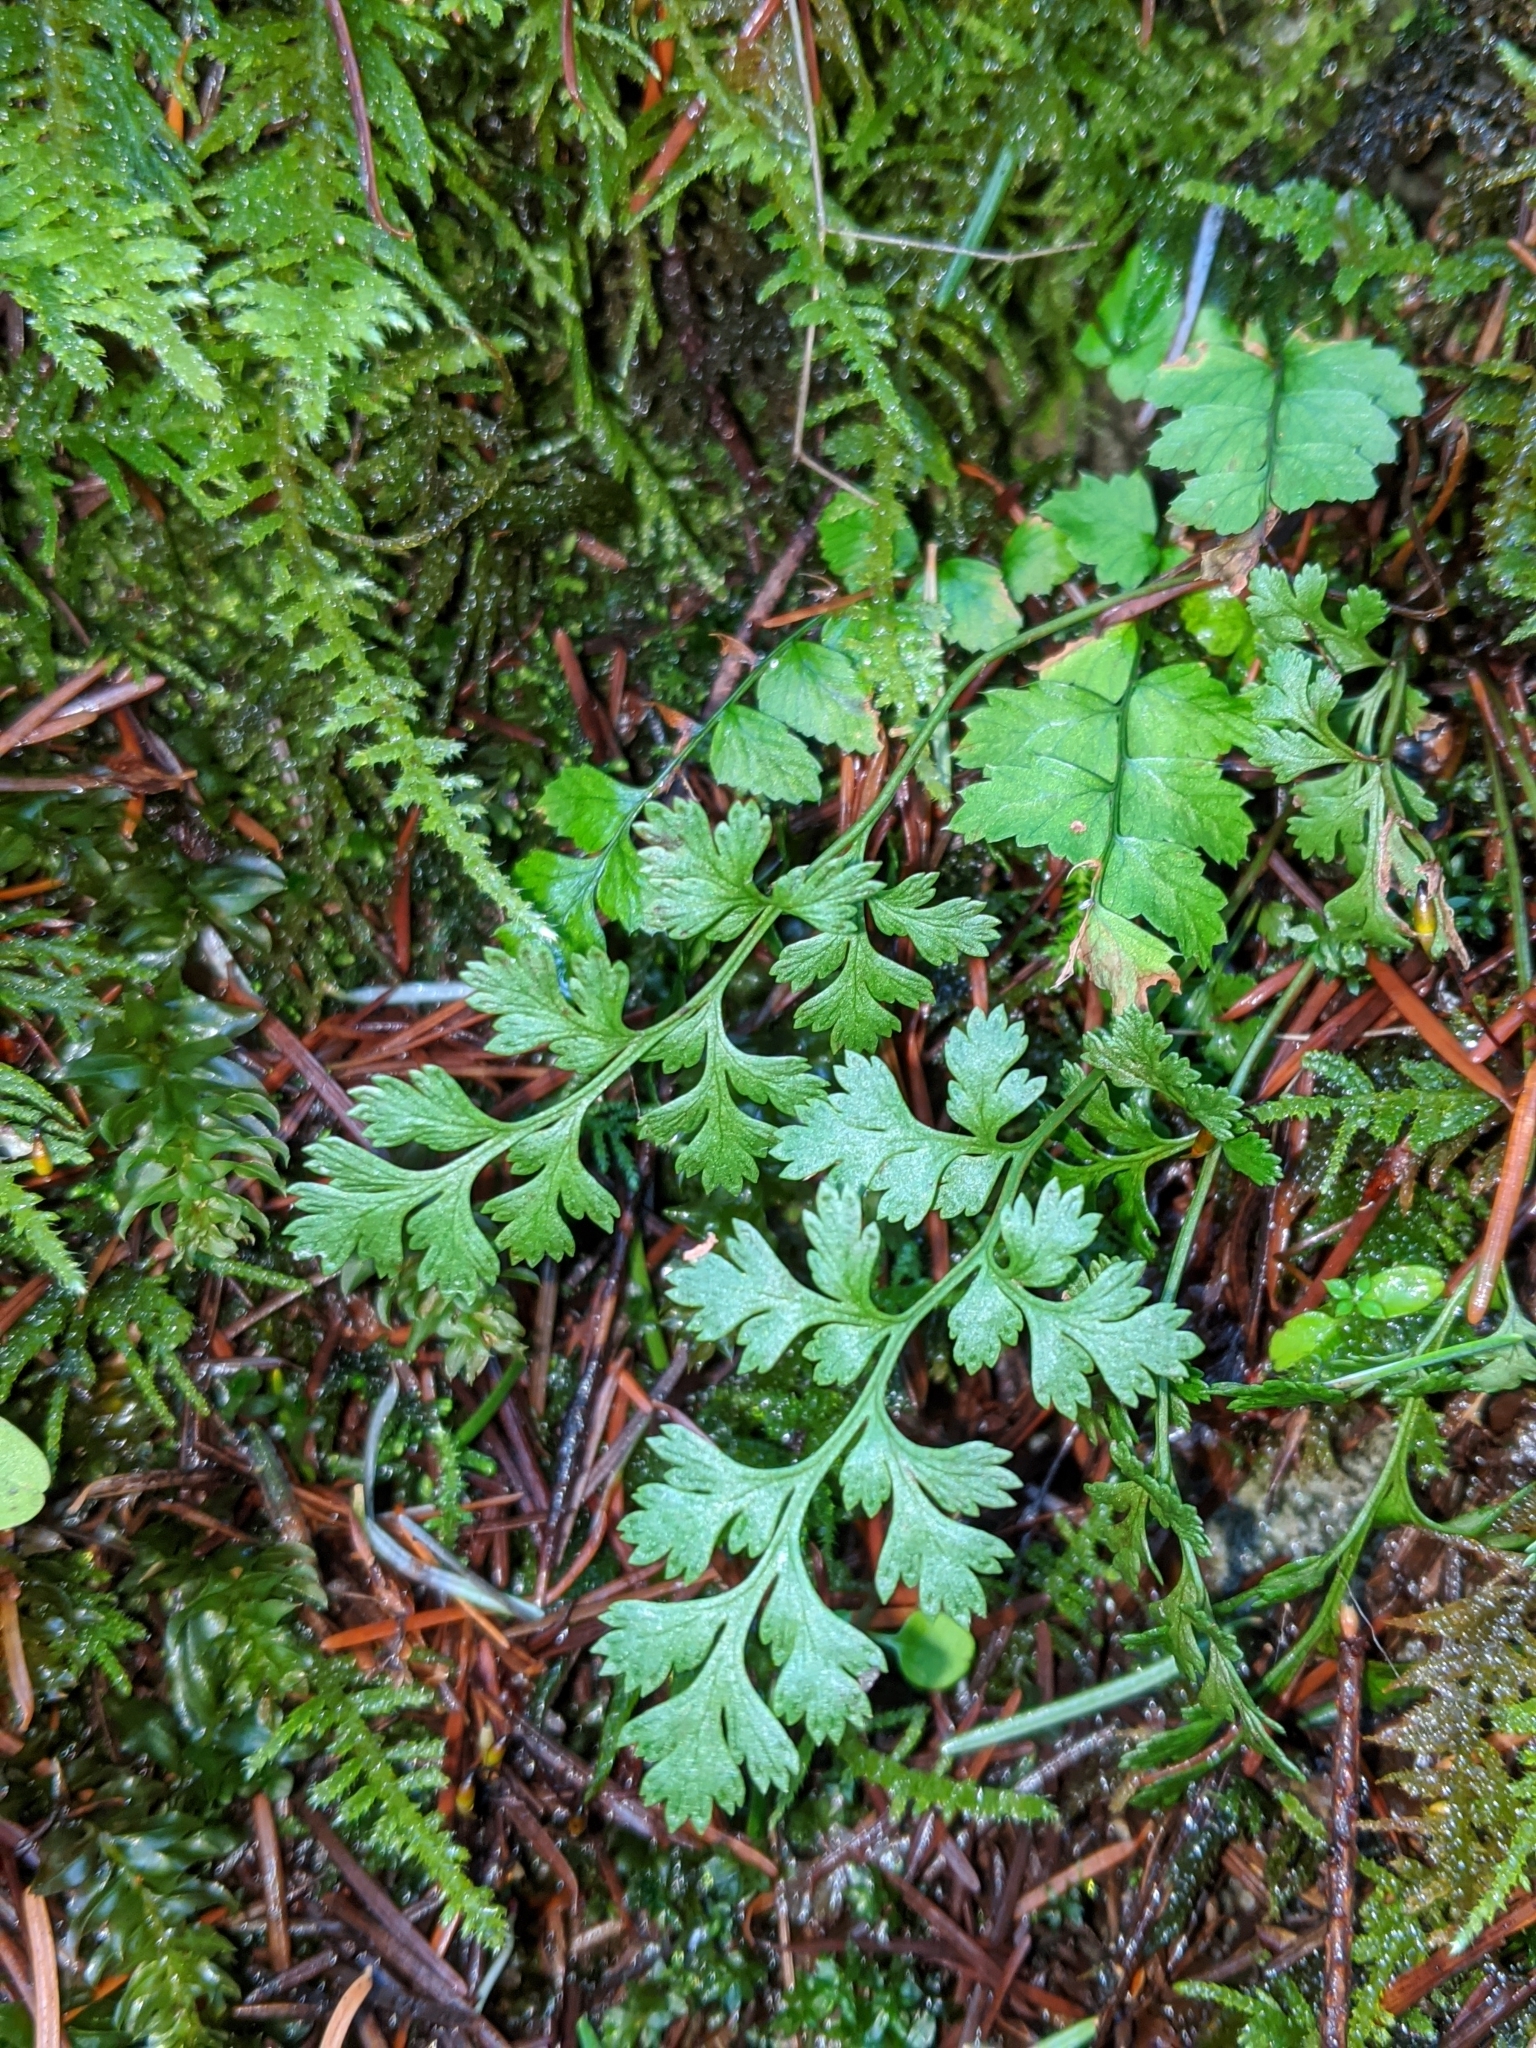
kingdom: Plantae
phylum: Tracheophyta
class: Polypodiopsida
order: Polypodiales
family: Pteridaceae
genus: Cryptogramma
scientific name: Cryptogramma acrostichoides
